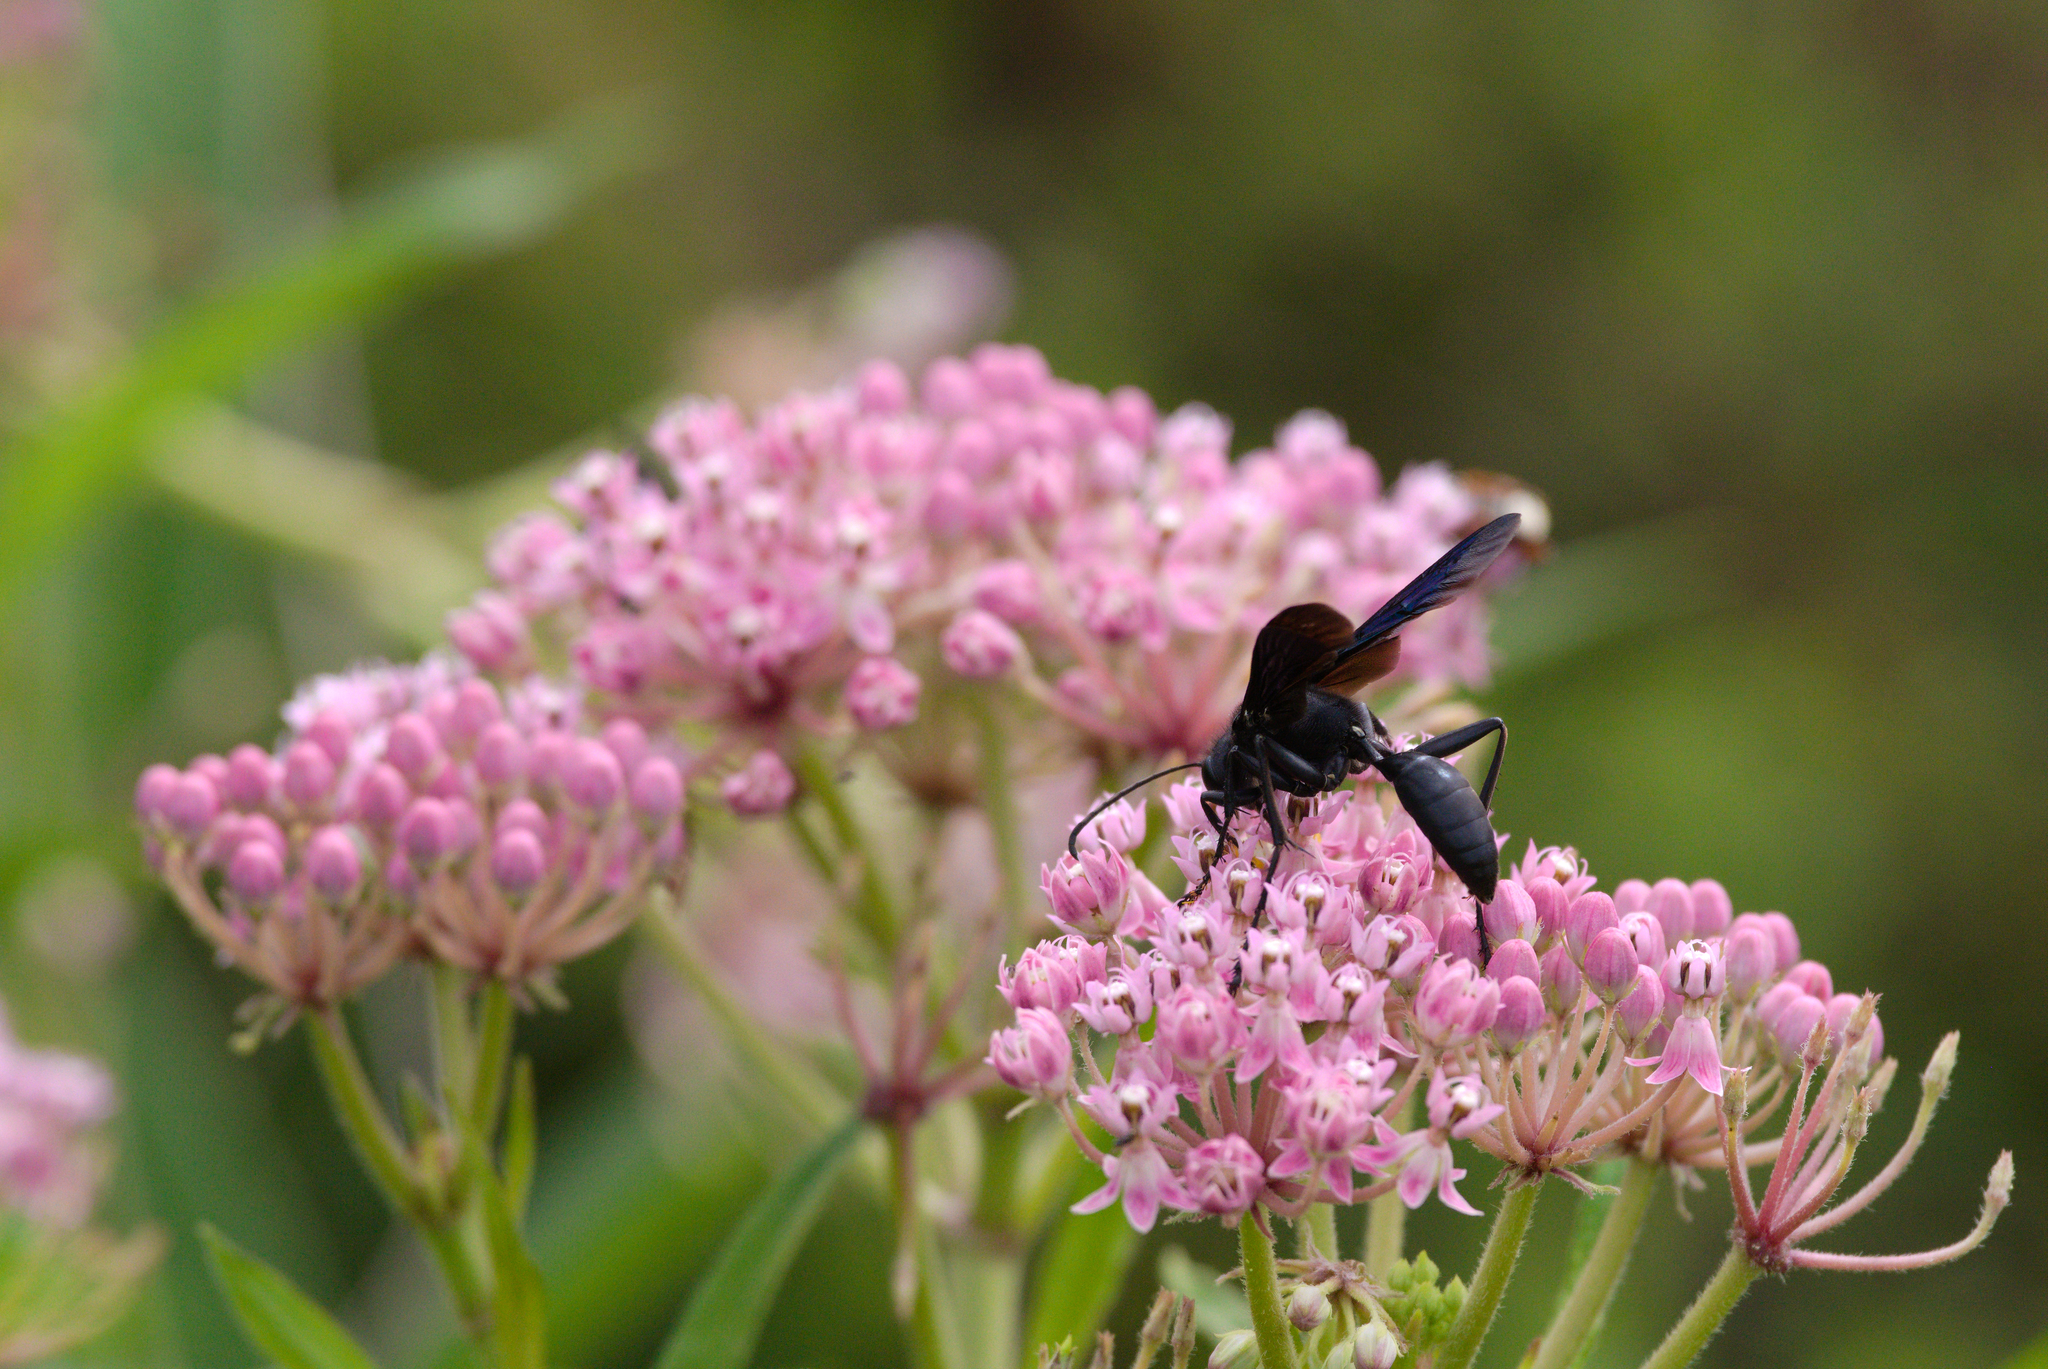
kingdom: Animalia
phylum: Arthropoda
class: Insecta
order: Hymenoptera
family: Sphecidae
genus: Sphex
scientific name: Sphex pensylvanicus
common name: Great black digger wasp
